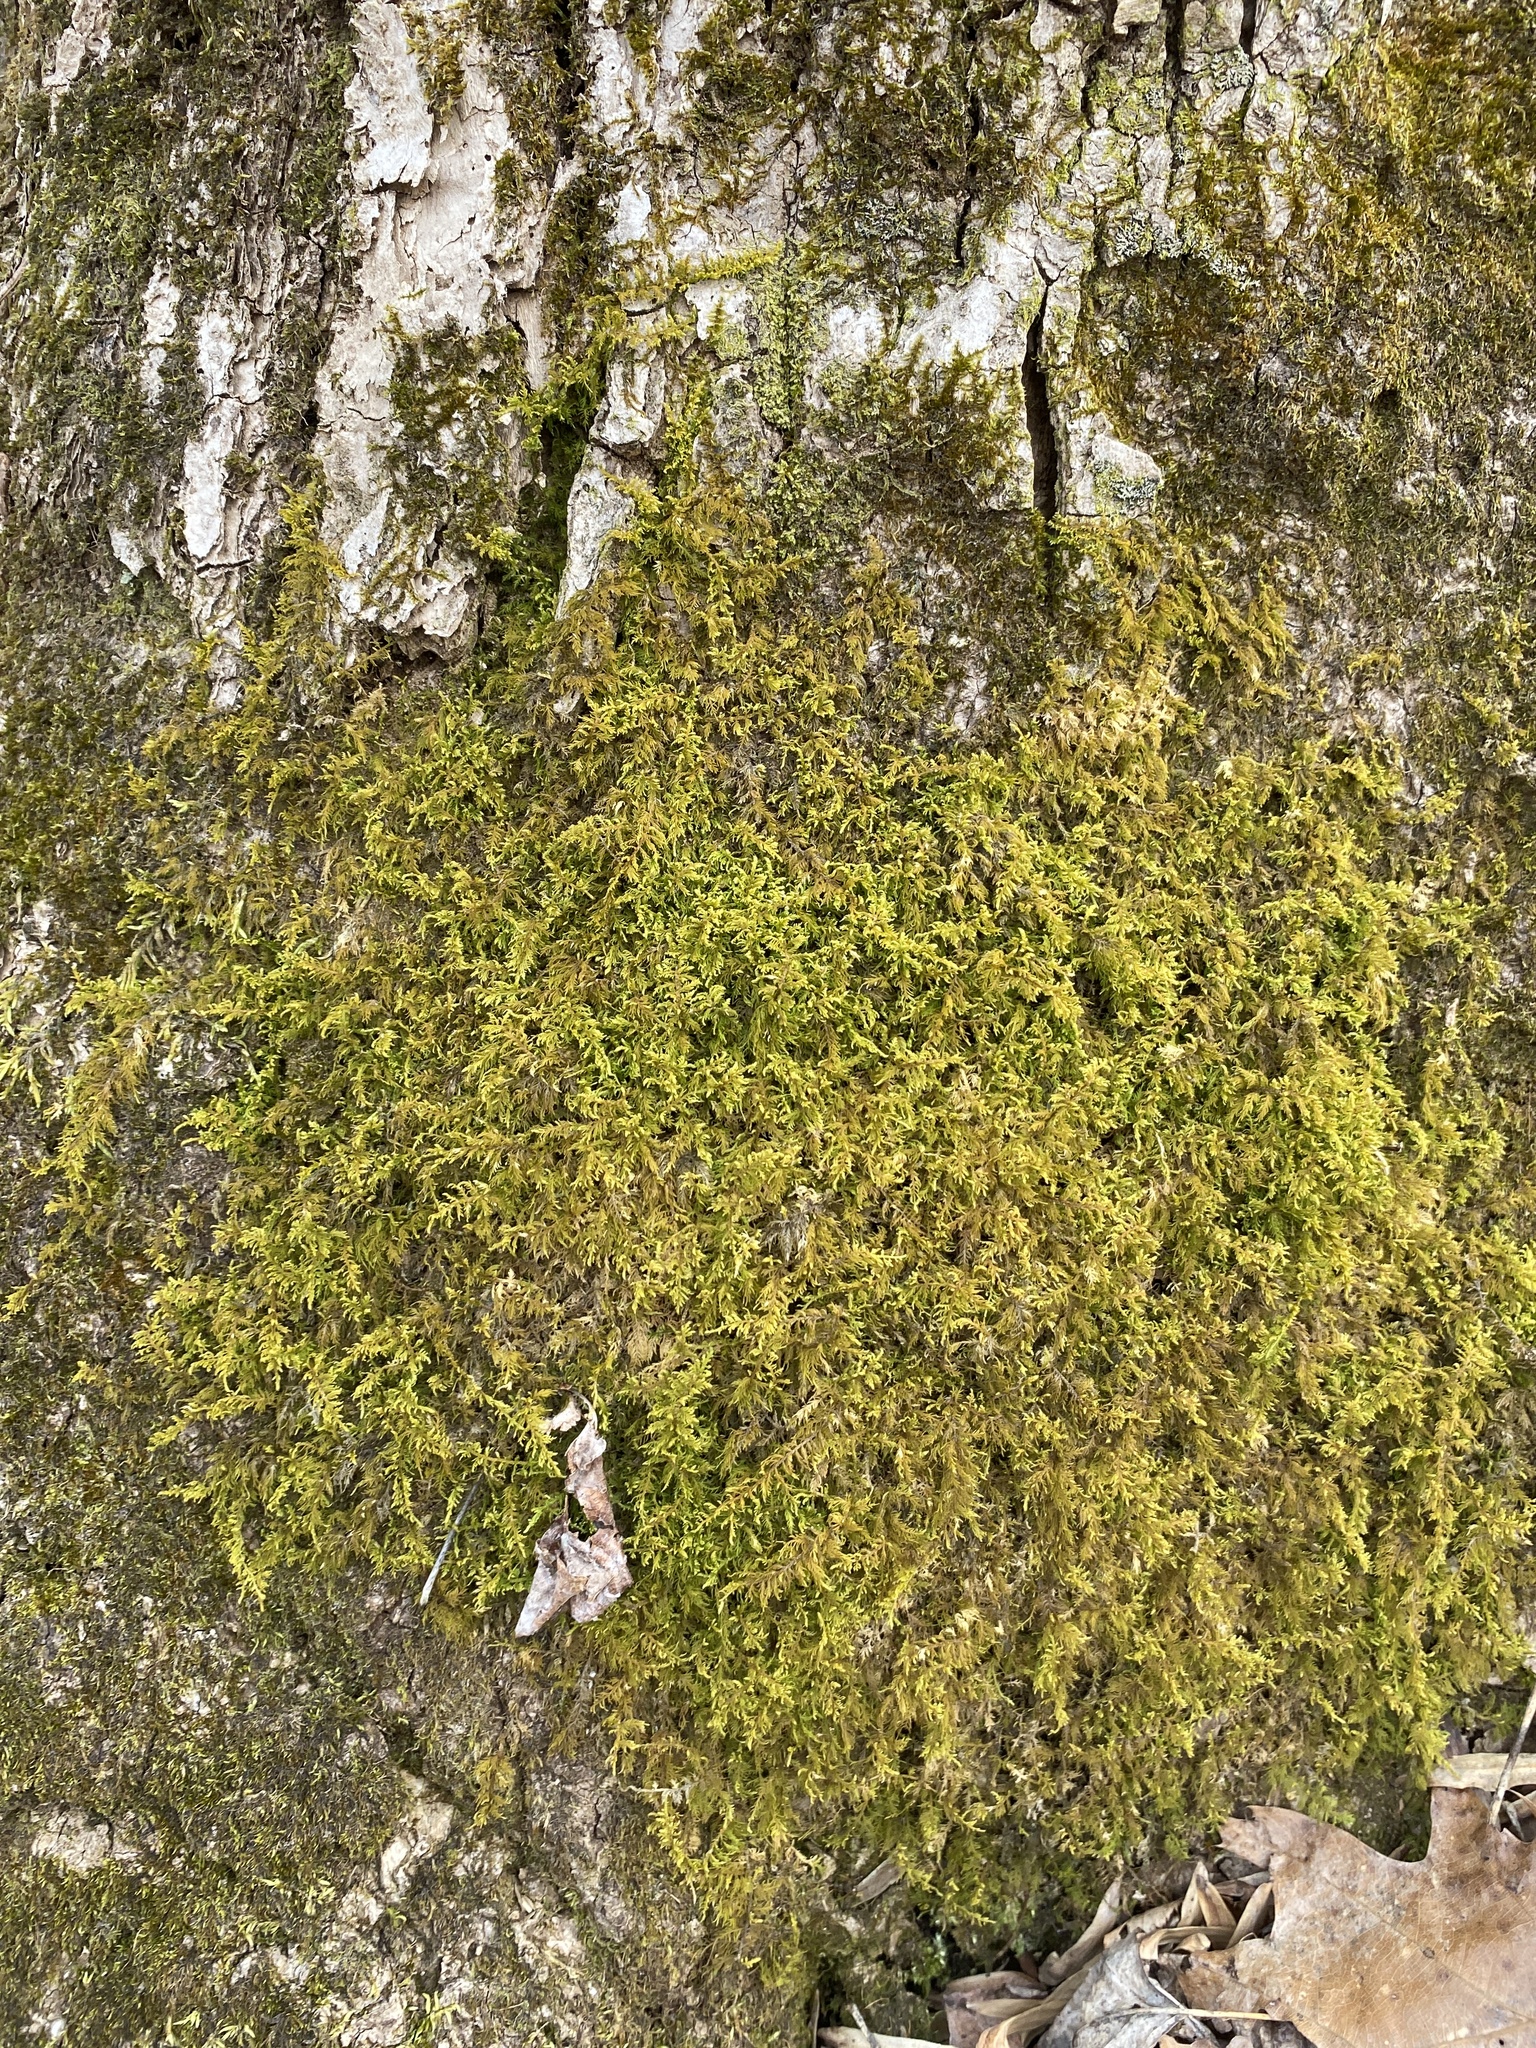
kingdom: Plantae
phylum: Bryophyta
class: Bryopsida
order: Hypnales
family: Thuidiaceae
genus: Thuidium
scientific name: Thuidium delicatulum
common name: Delicate fern moss
